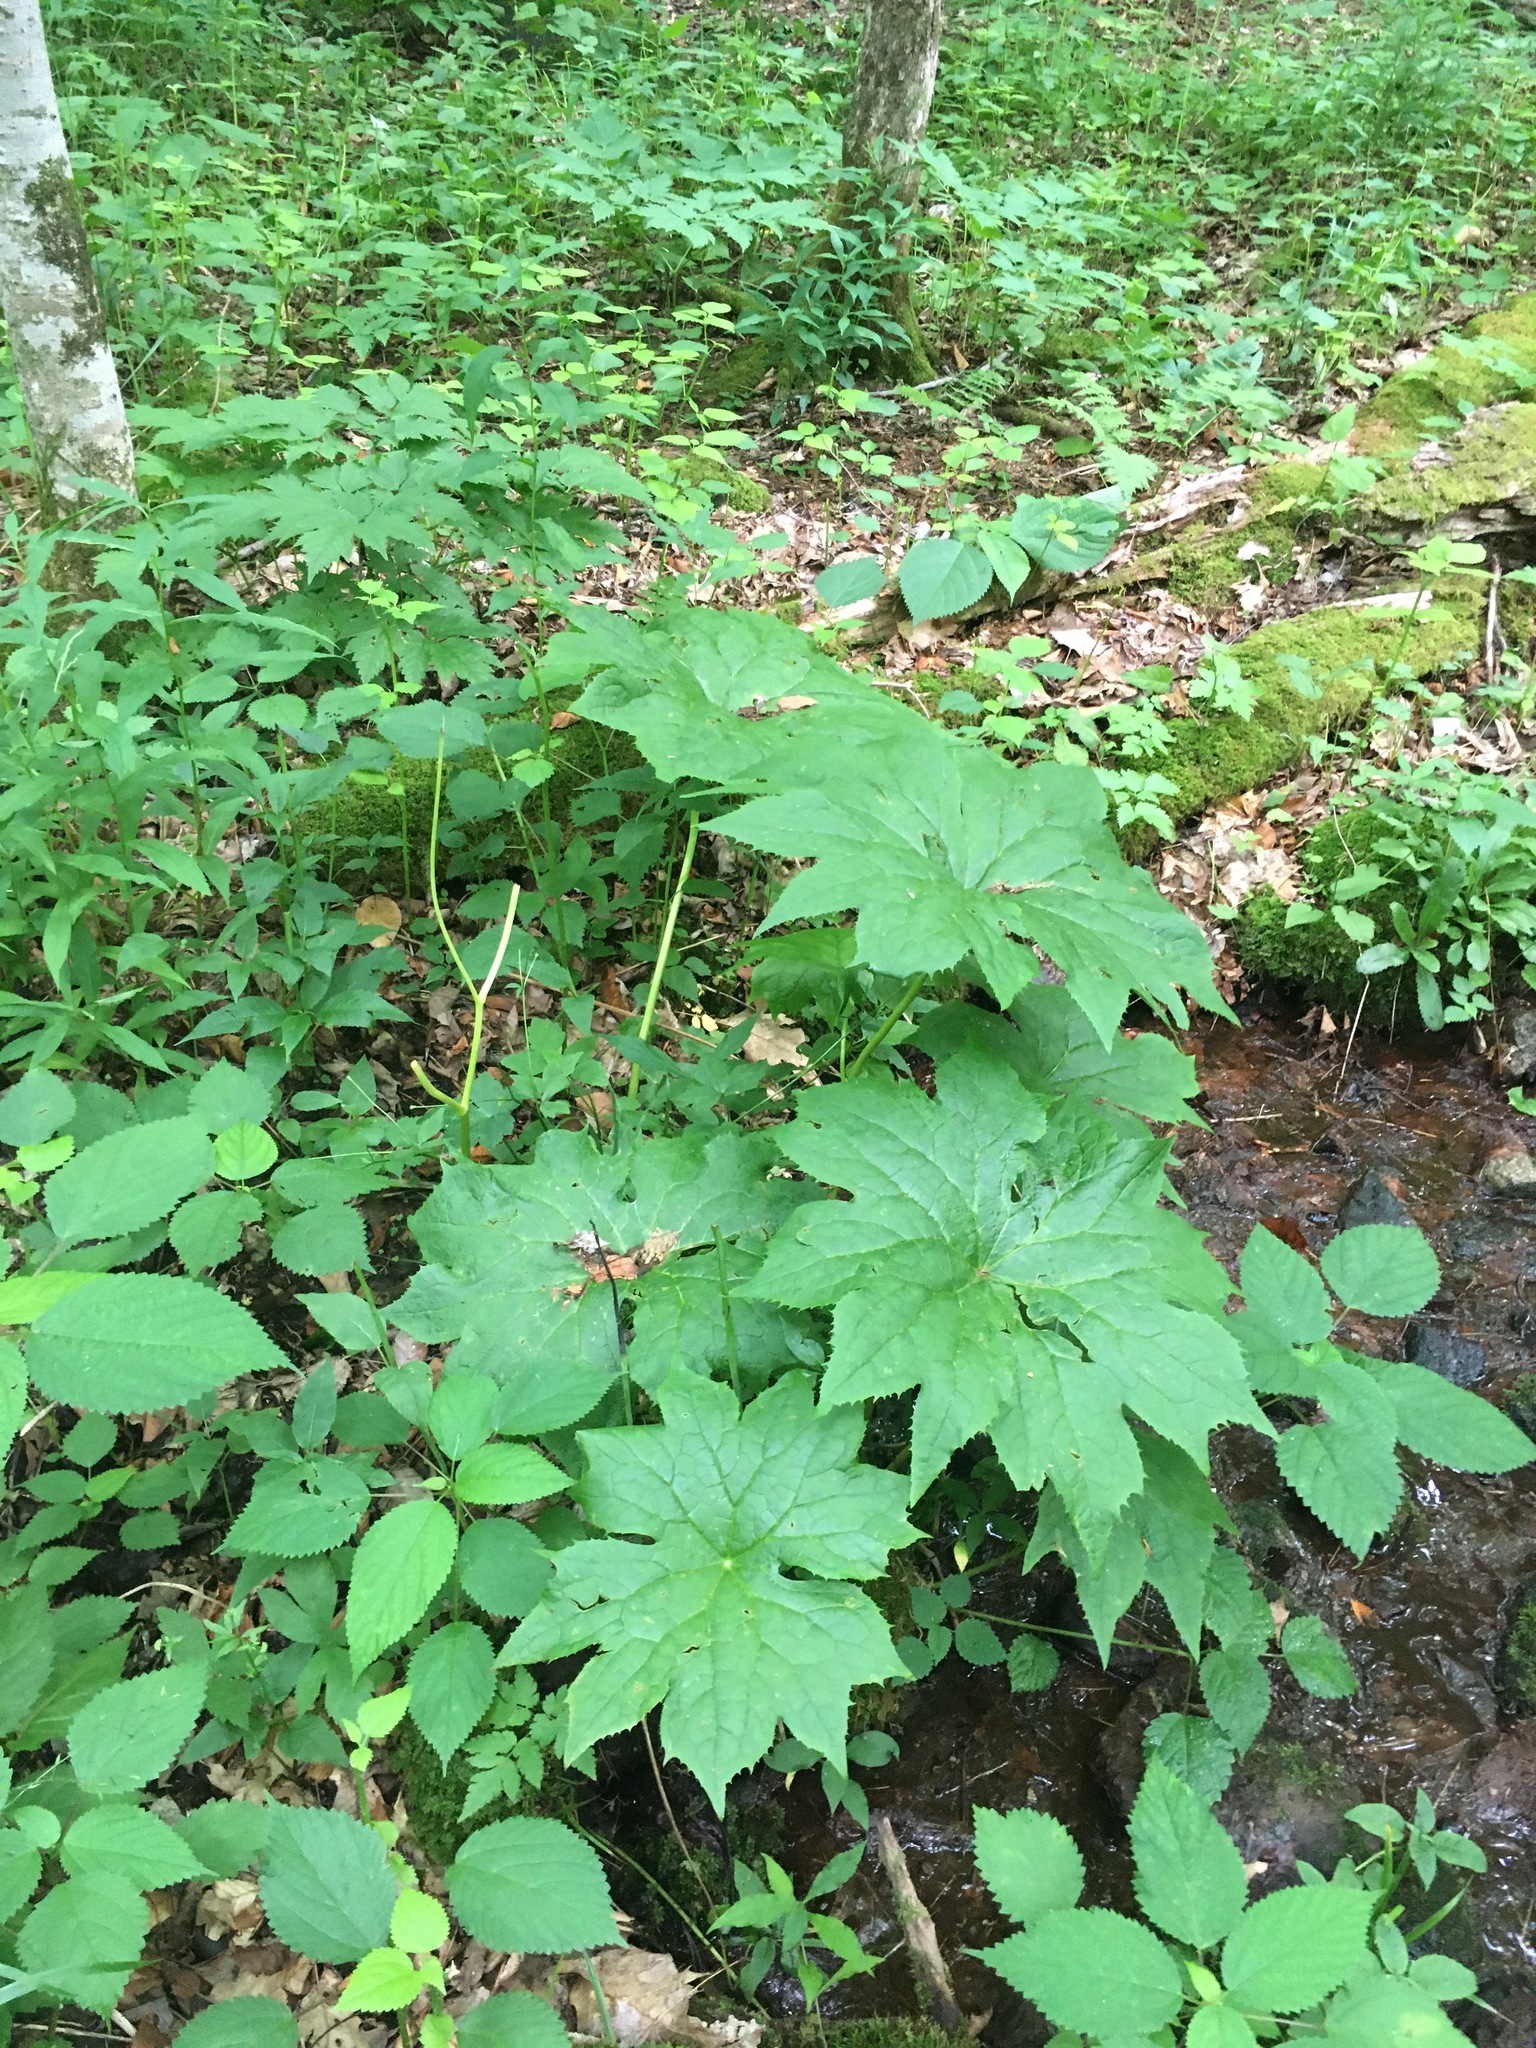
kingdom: Plantae
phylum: Tracheophyta
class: Magnoliopsida
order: Ranunculales
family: Berberidaceae
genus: Diphylleia
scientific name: Diphylleia cymosa
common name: Umbrella-leaf
